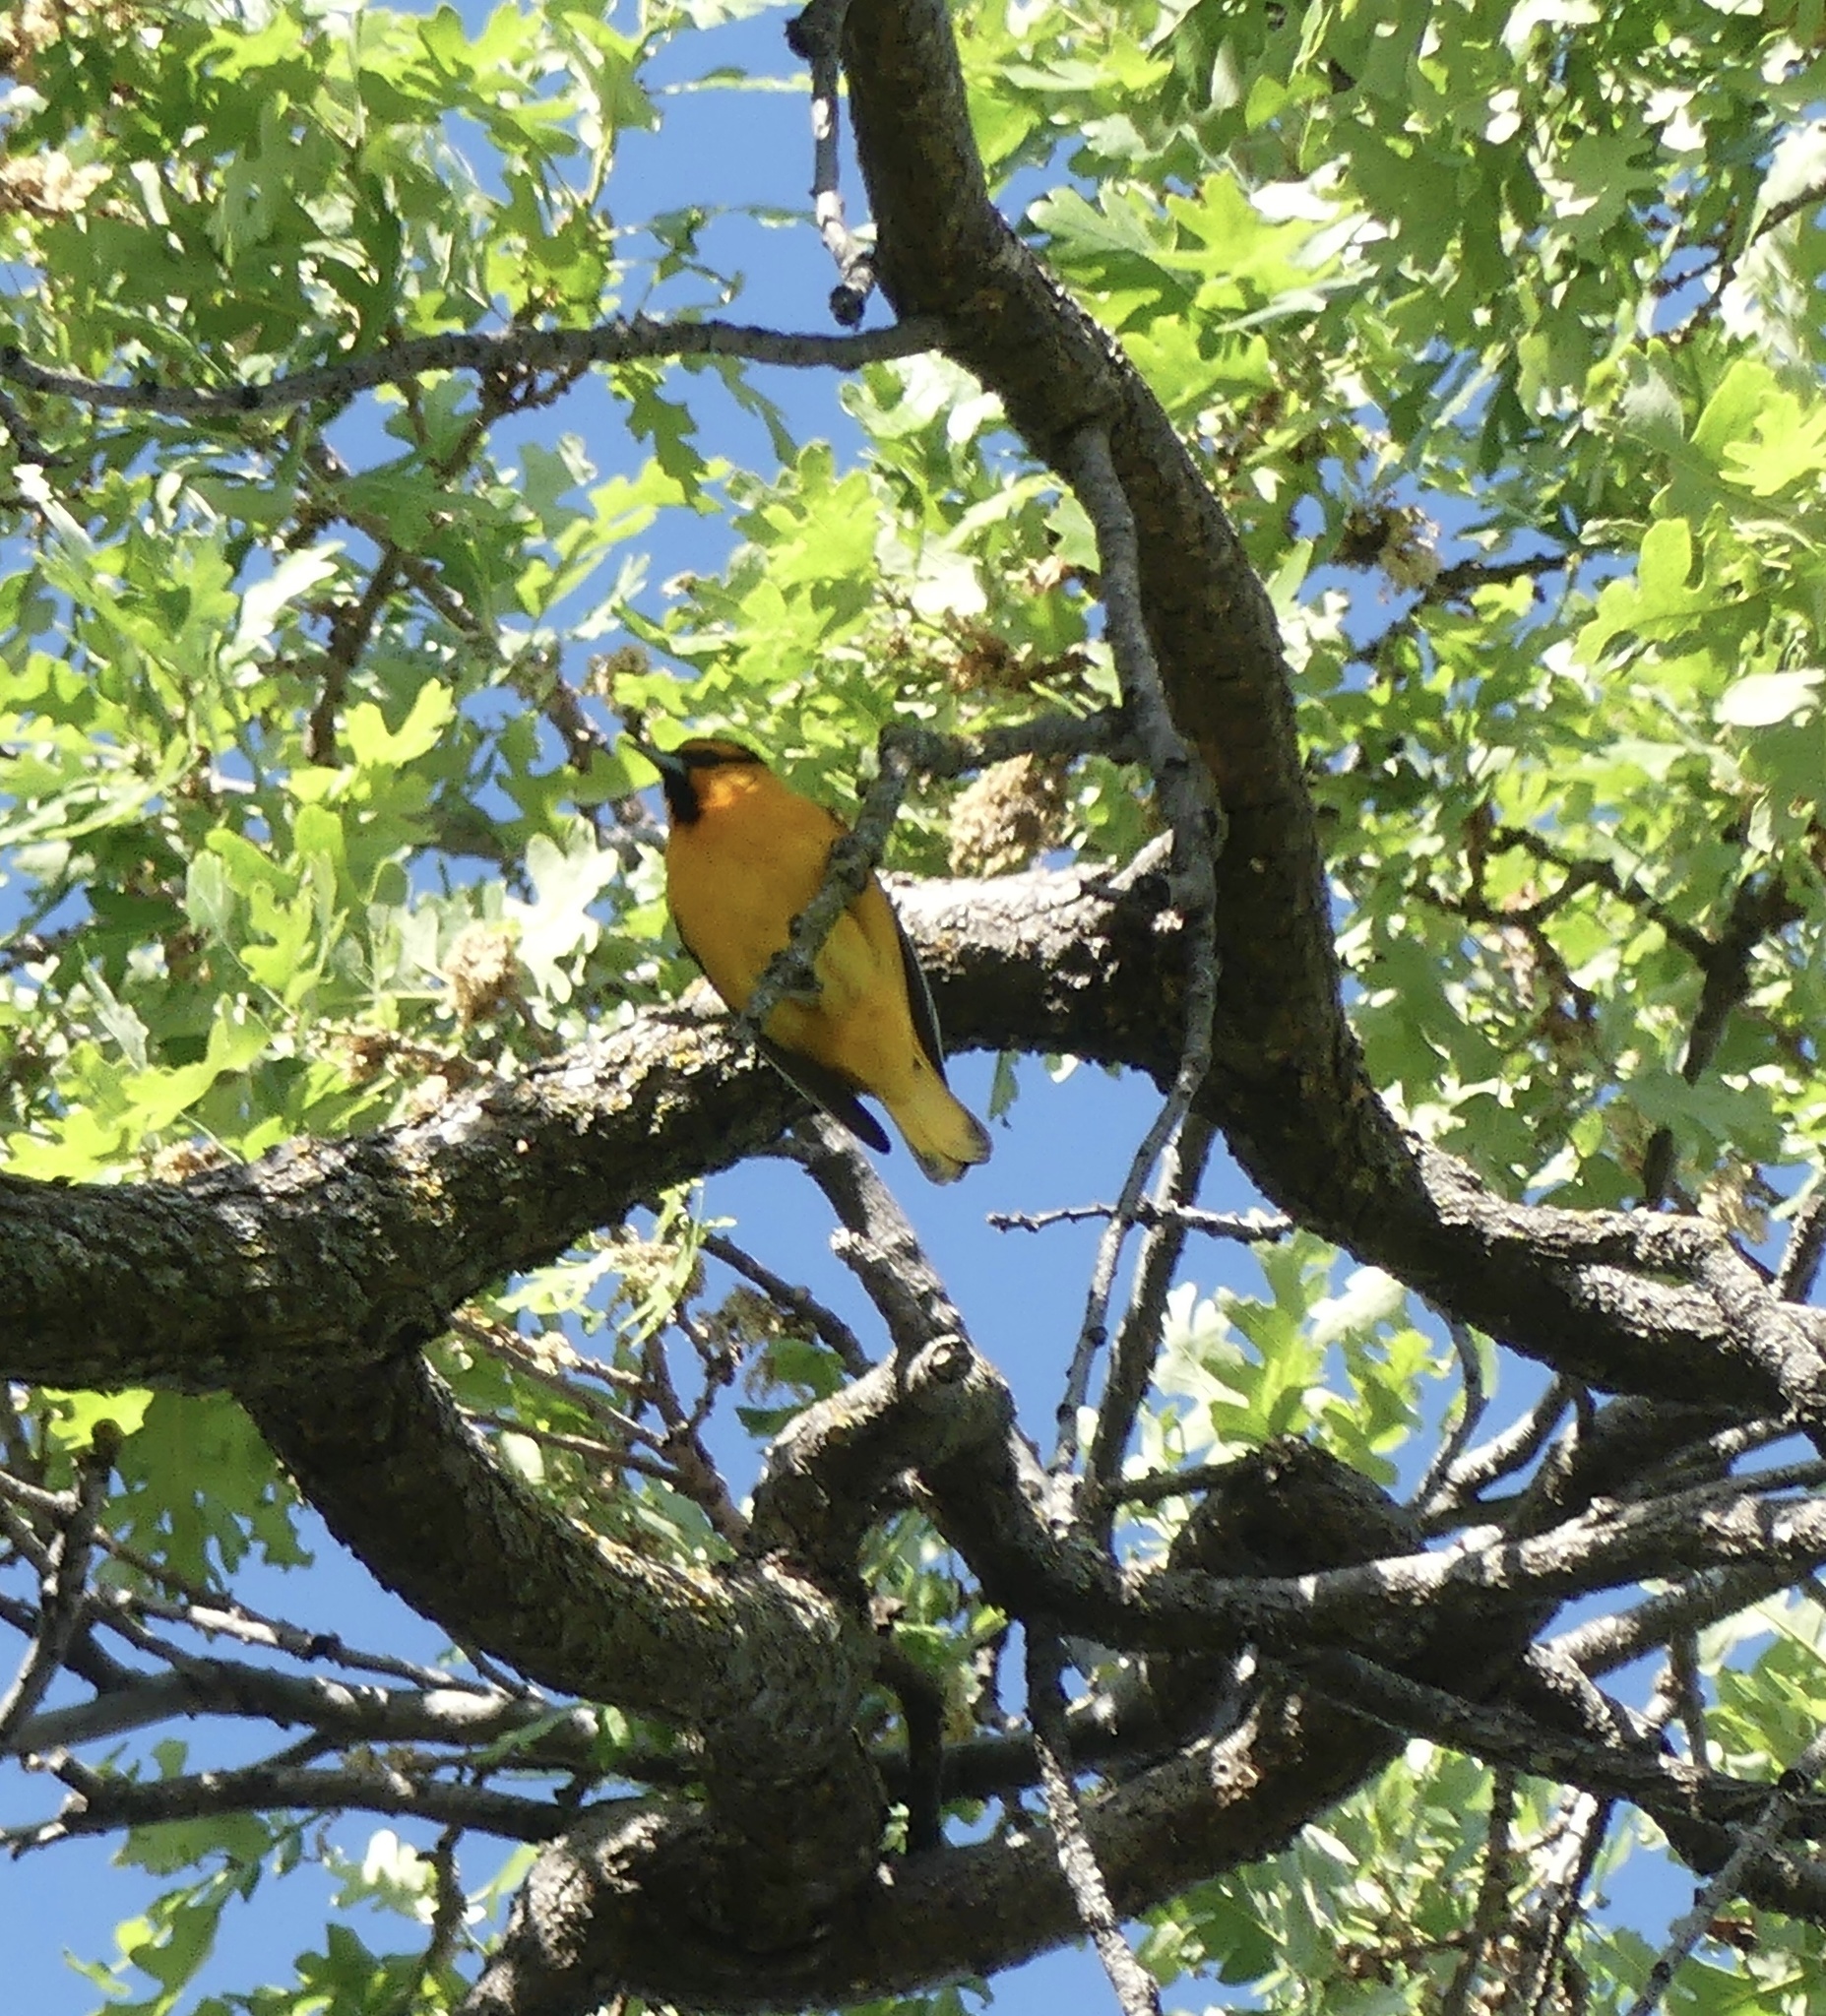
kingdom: Animalia
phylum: Chordata
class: Aves
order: Passeriformes
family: Icteridae
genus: Icterus
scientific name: Icterus bullockii
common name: Bullock's oriole
